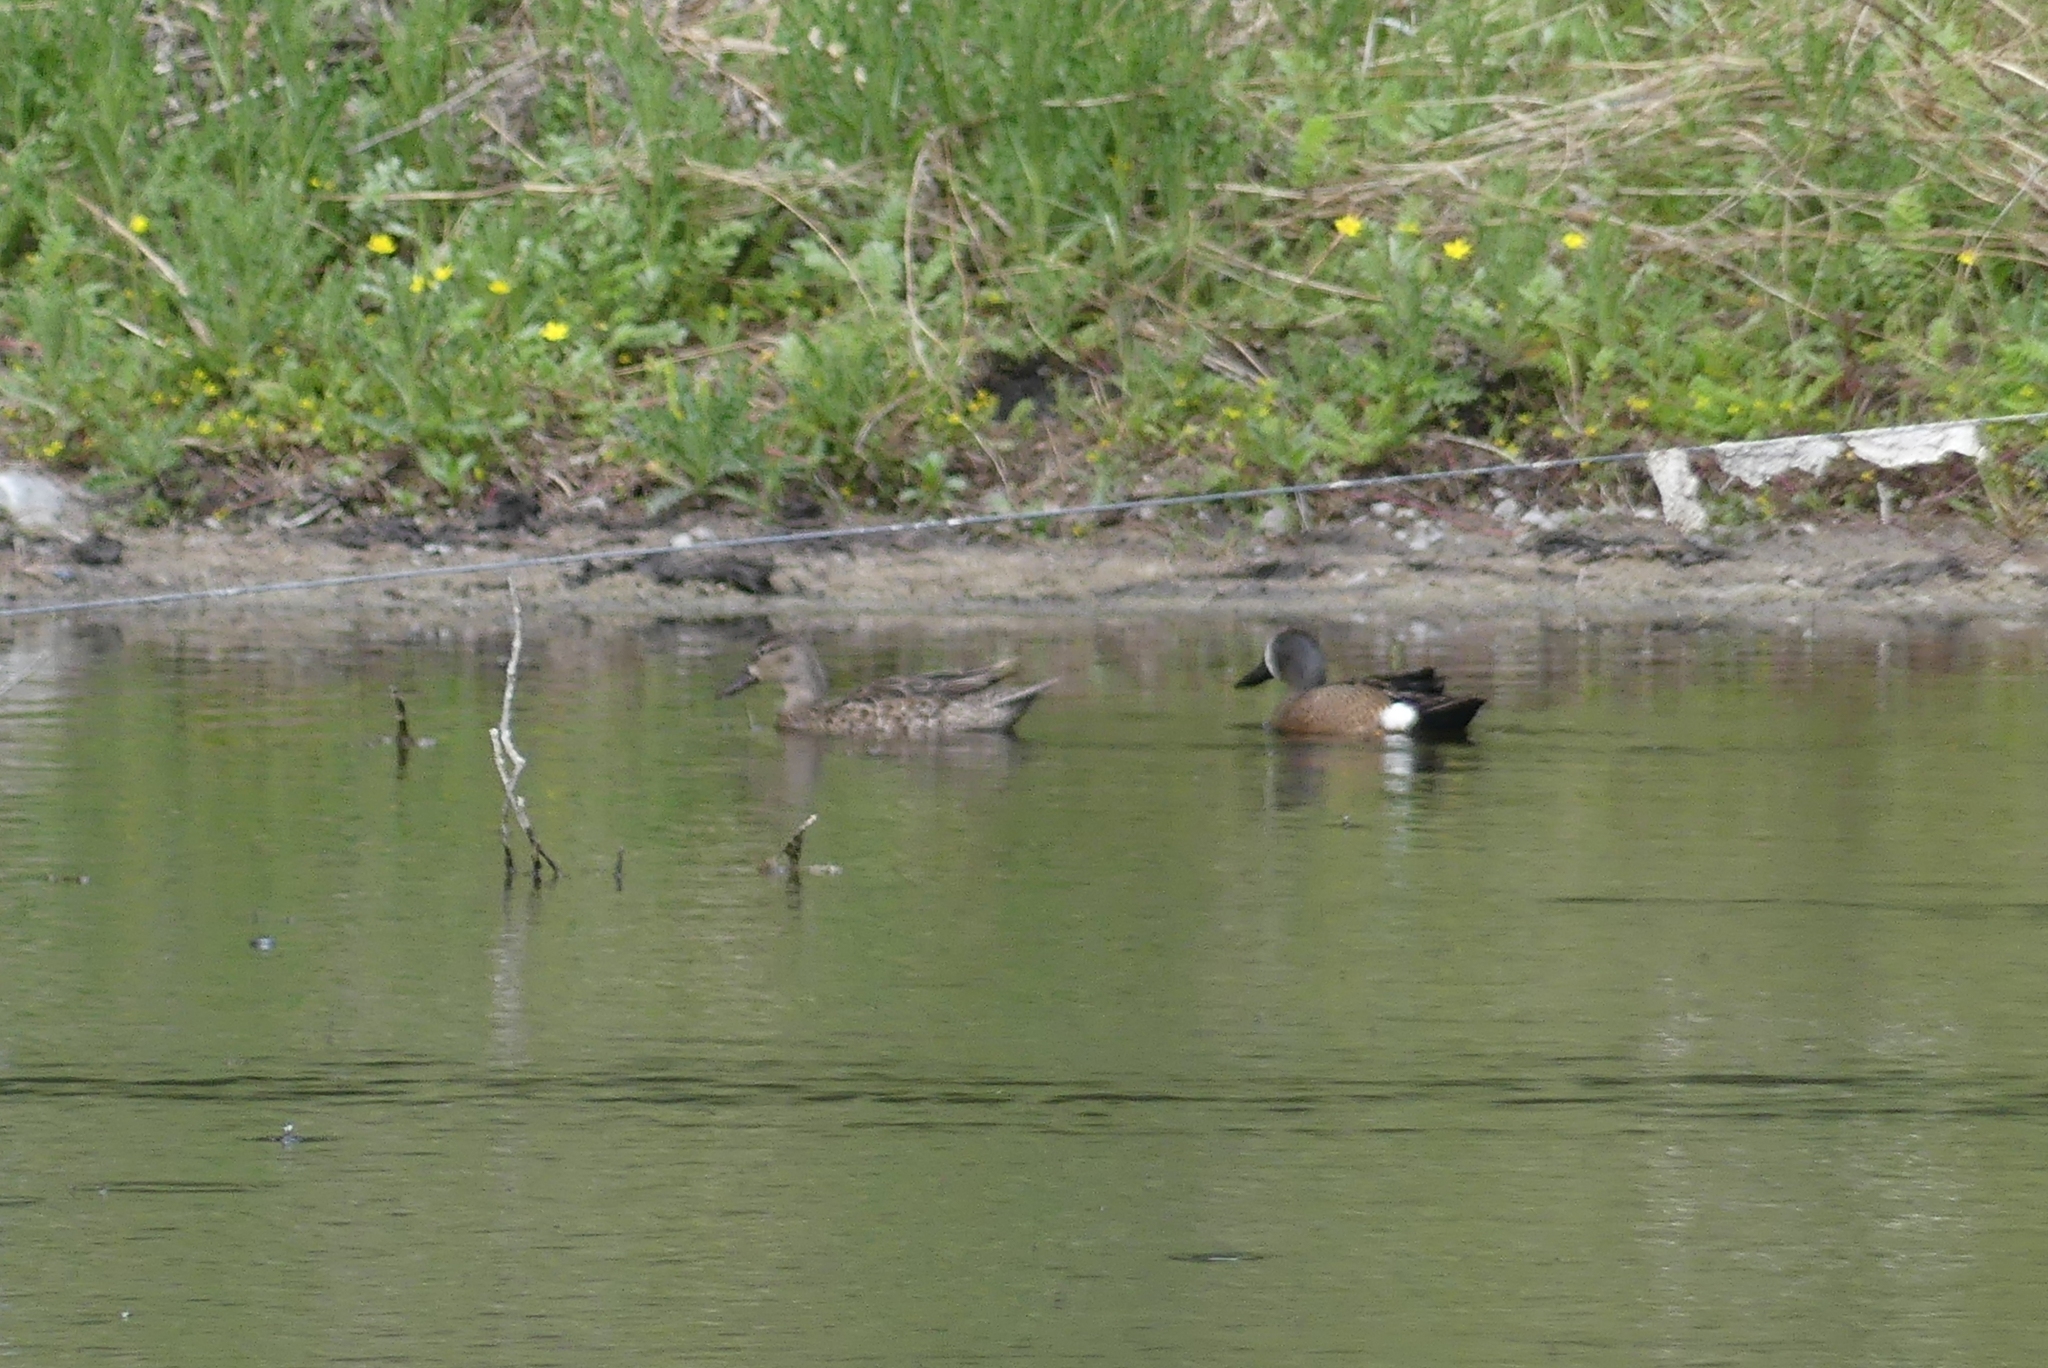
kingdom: Animalia
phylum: Chordata
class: Aves
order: Anseriformes
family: Anatidae
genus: Spatula
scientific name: Spatula discors
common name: Blue-winged teal
